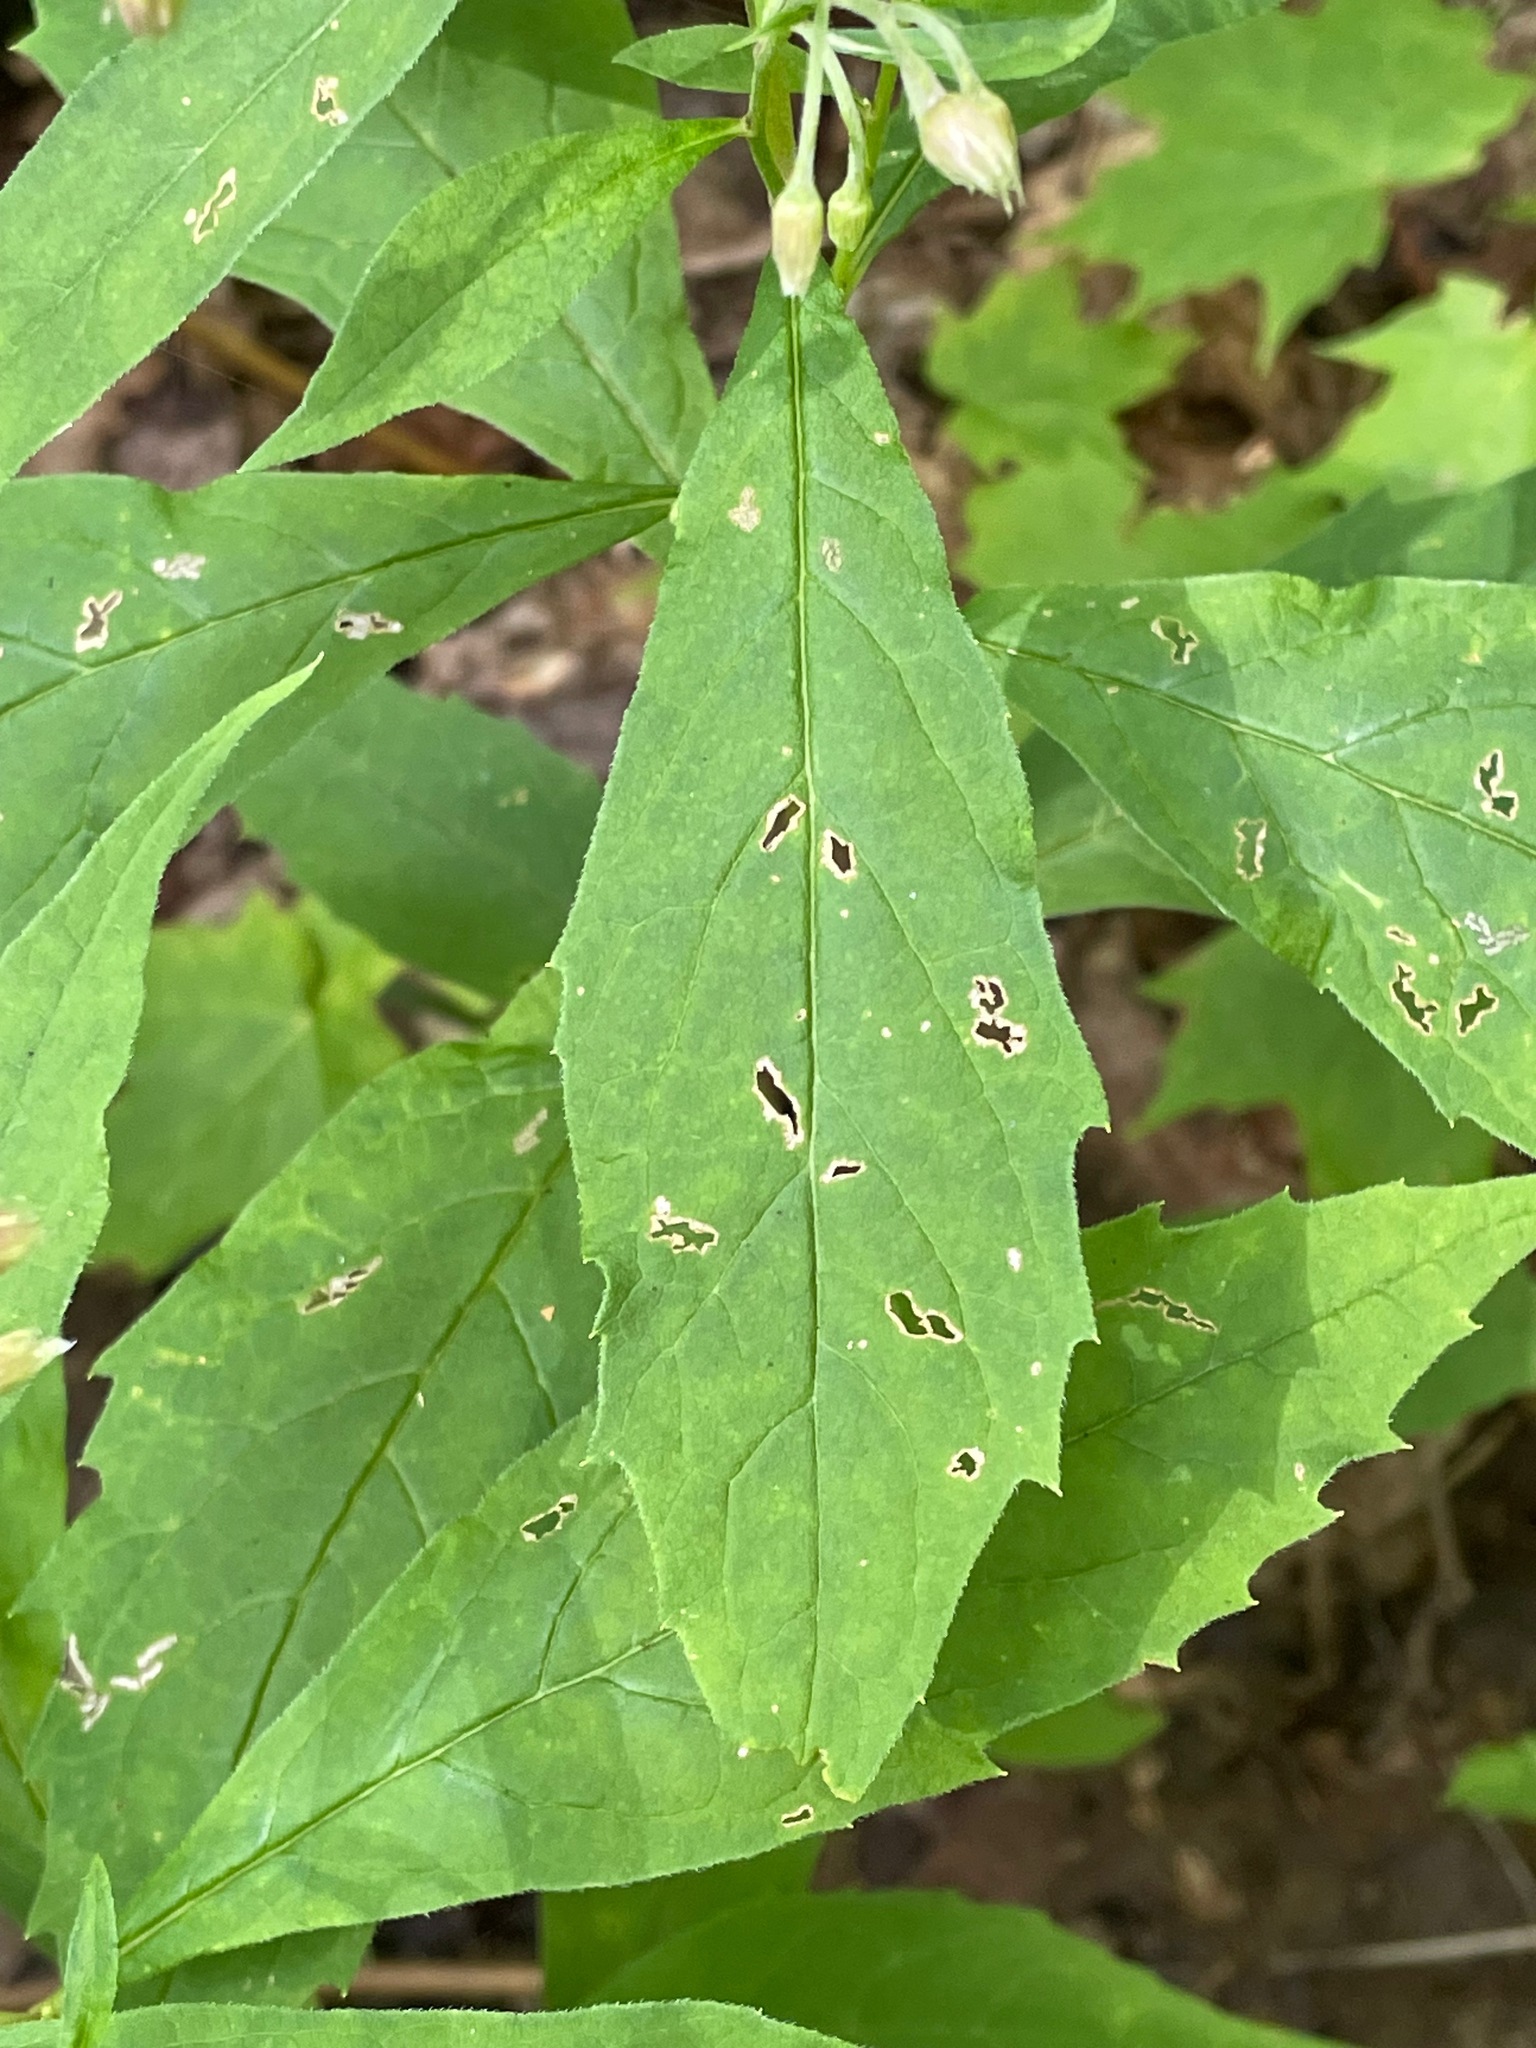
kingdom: Plantae
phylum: Tracheophyta
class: Magnoliopsida
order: Asterales
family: Asteraceae
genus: Oclemena
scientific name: Oclemena acuminata
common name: Mountain aster
